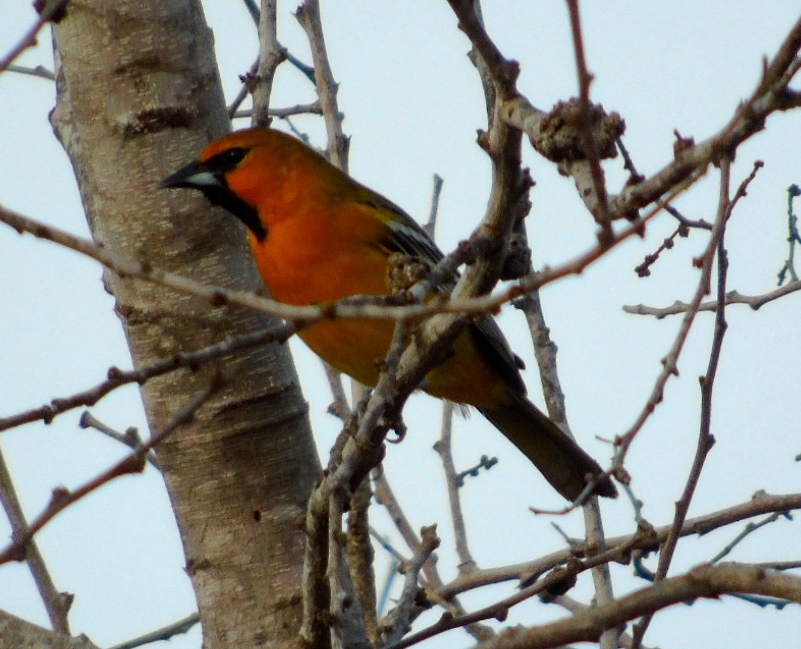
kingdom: Animalia
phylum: Chordata
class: Aves
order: Passeriformes
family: Icteridae
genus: Icterus
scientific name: Icterus pustulatus
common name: Streak-backed oriole
